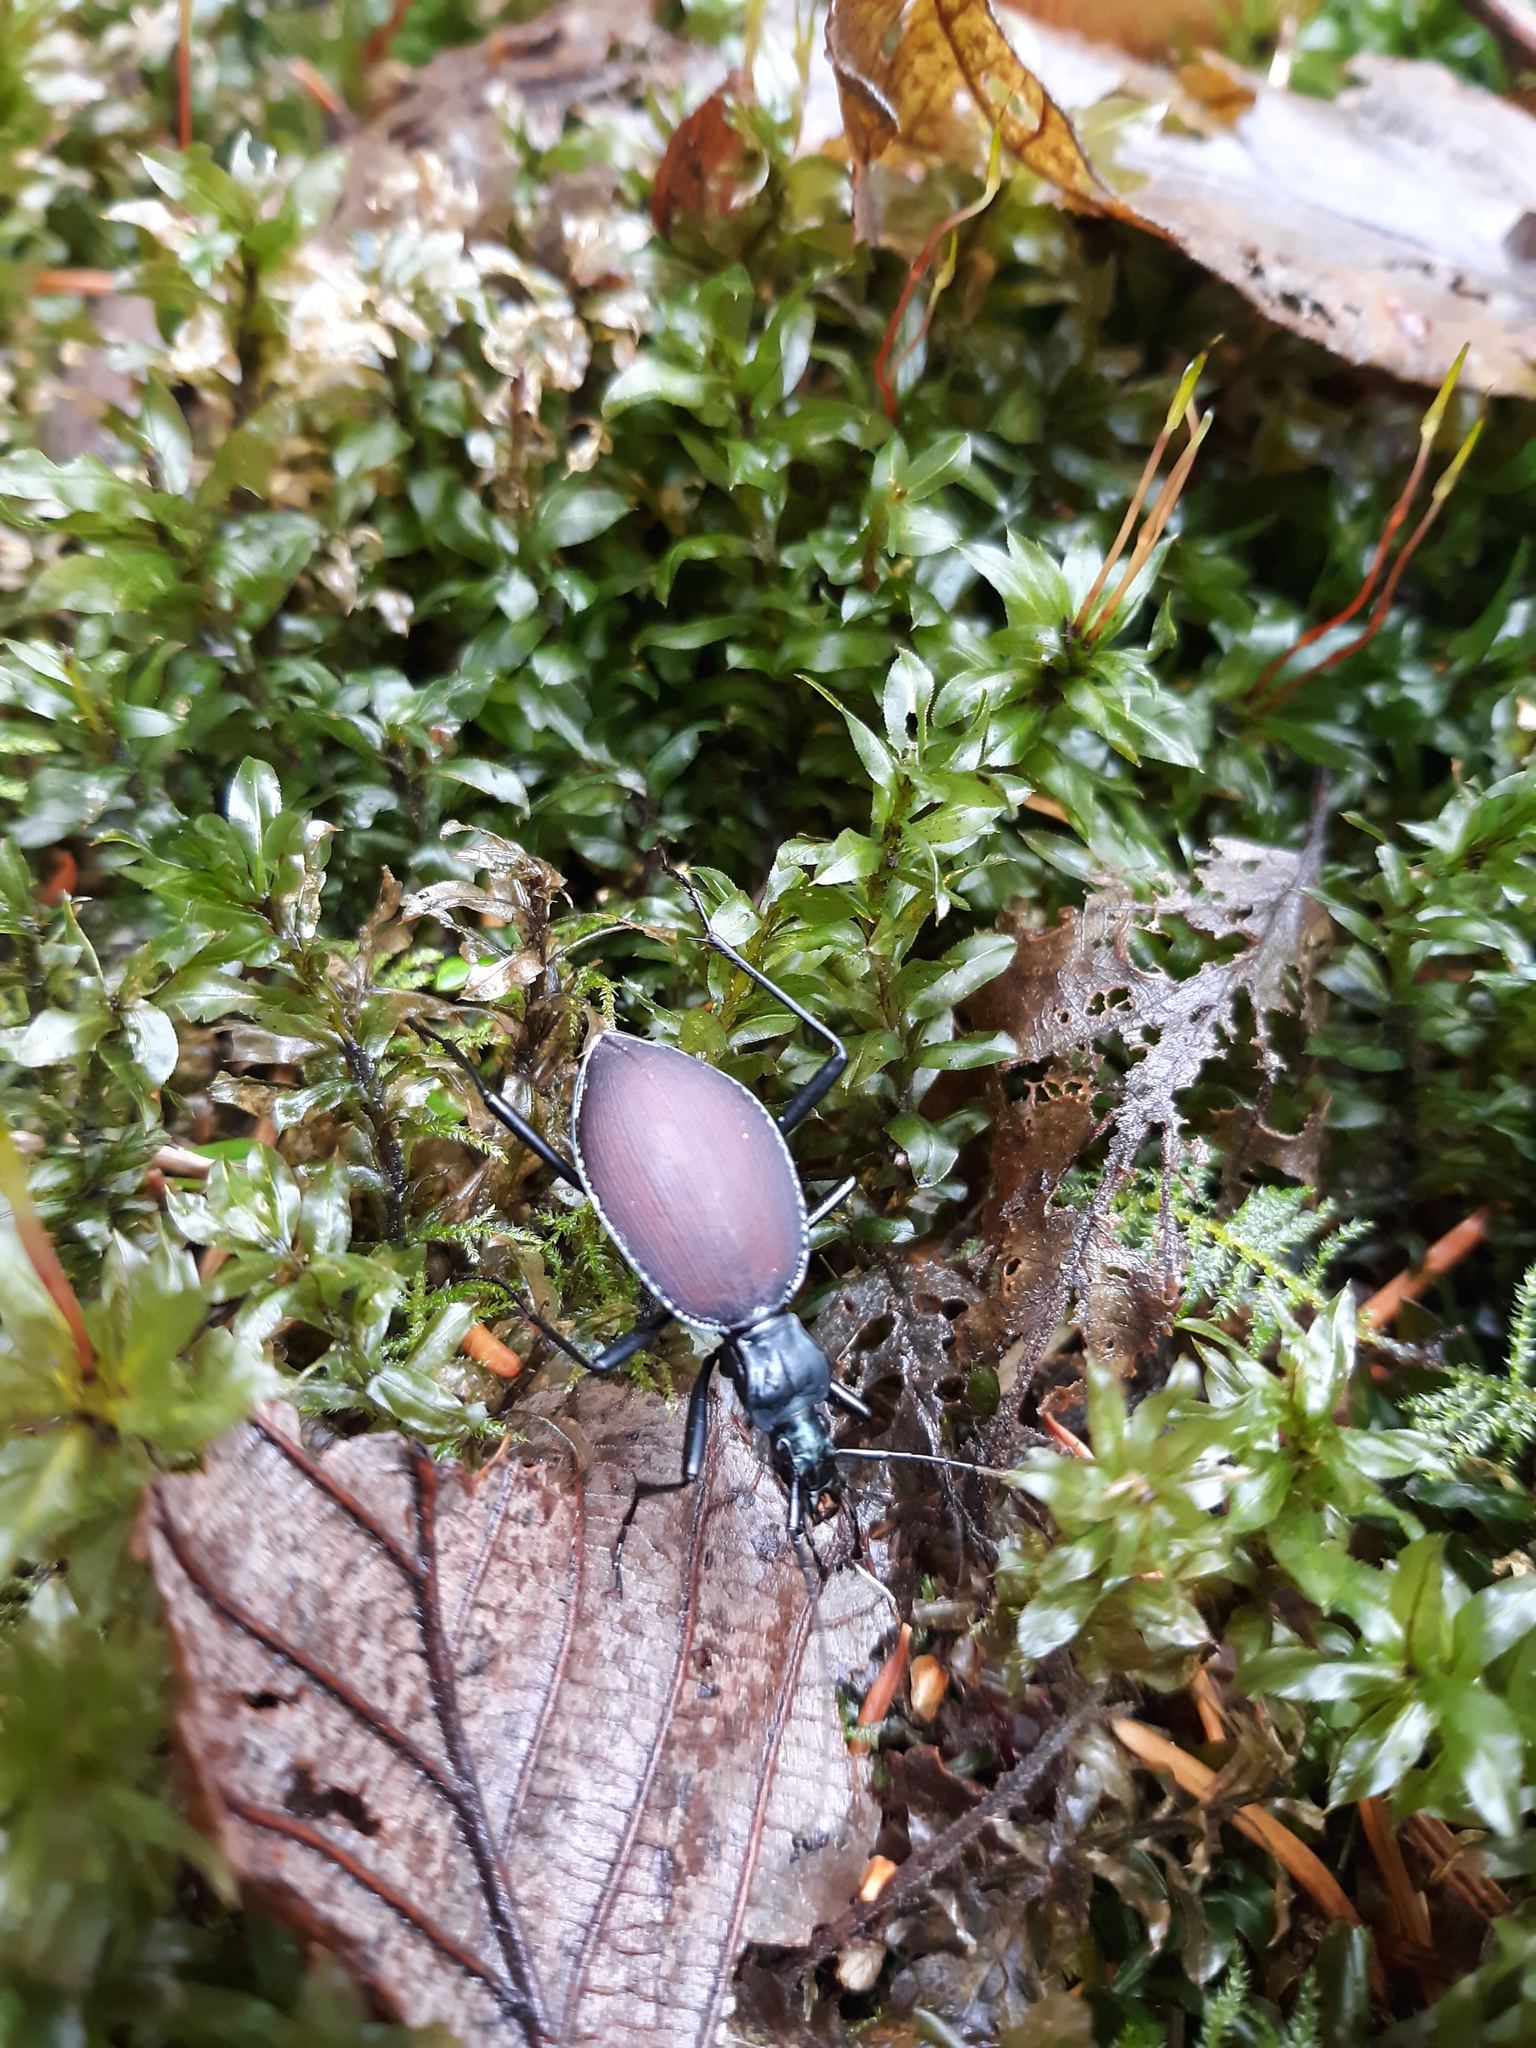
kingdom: Animalia
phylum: Arthropoda
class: Insecta
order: Coleoptera
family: Carabidae
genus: Scaphinotus
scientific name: Scaphinotus angusticollis
